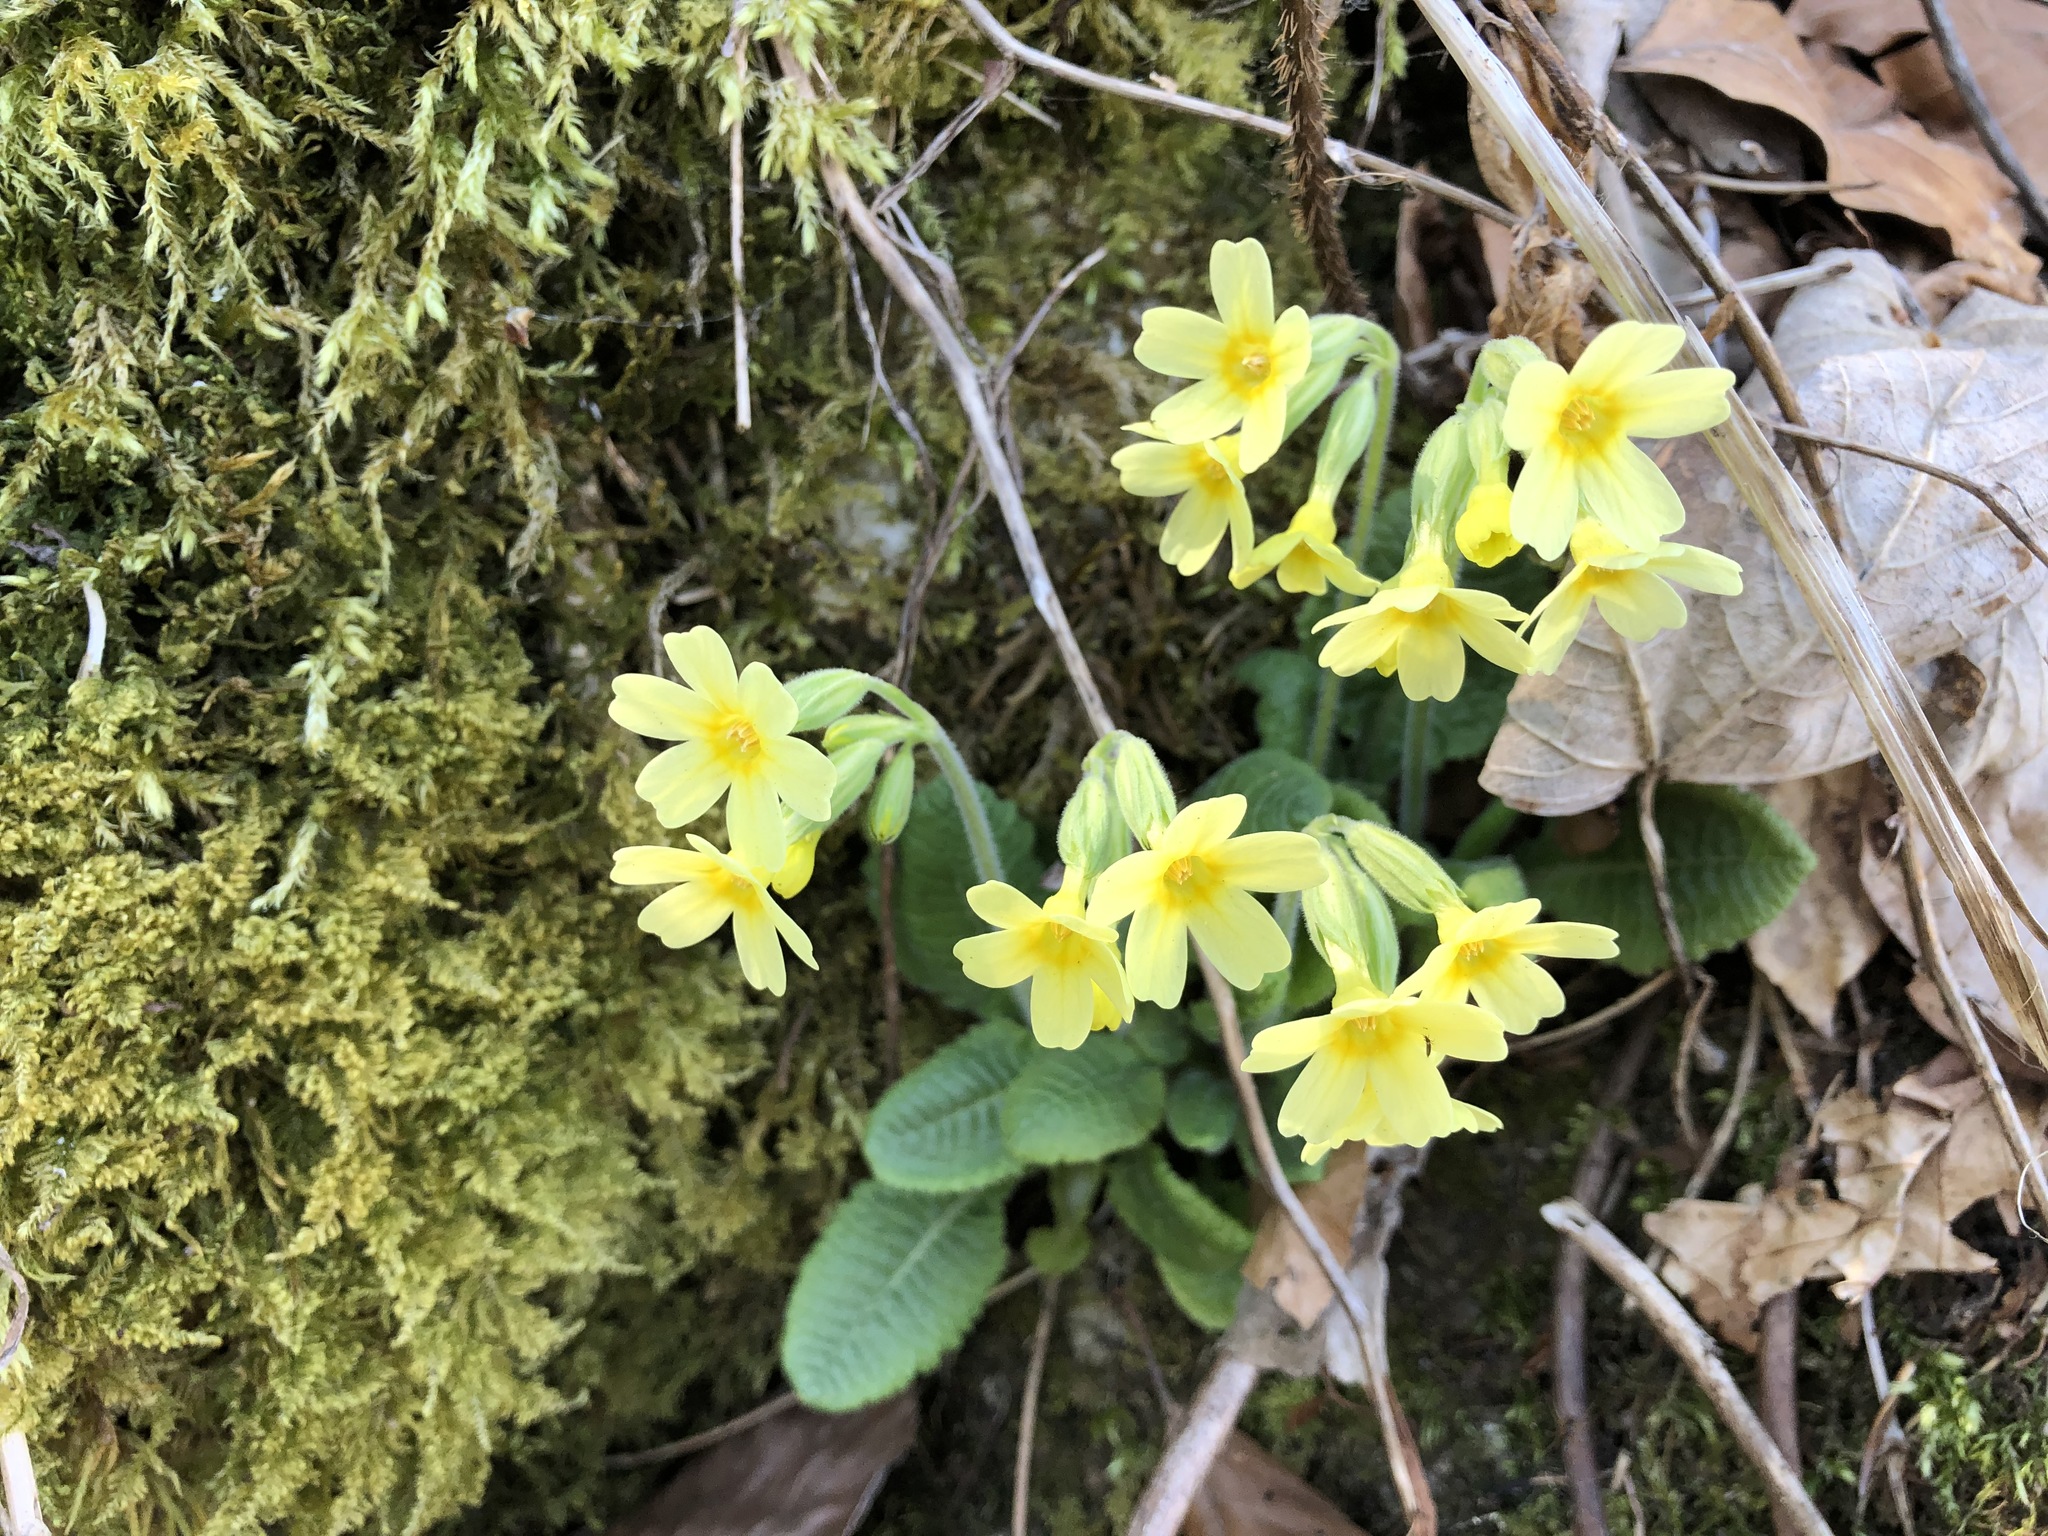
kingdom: Plantae
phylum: Tracheophyta
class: Magnoliopsida
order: Ericales
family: Primulaceae
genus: Primula
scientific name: Primula elatior
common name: Oxlip
